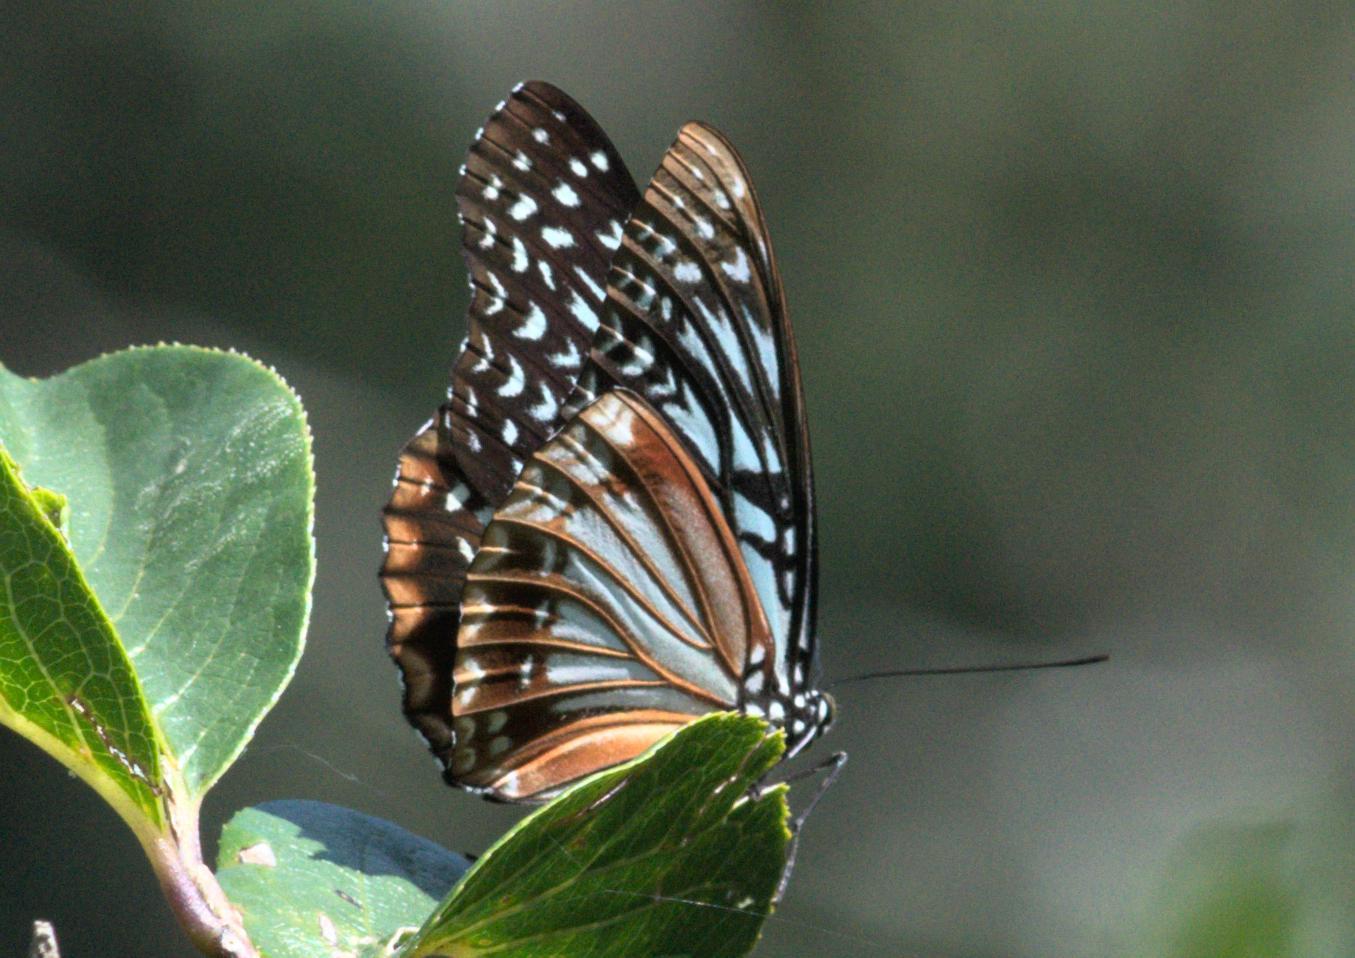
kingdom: Animalia
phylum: Arthropoda
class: Insecta
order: Lepidoptera
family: Nymphalidae
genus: Hestinalis
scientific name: Hestinalis nama
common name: Circe
